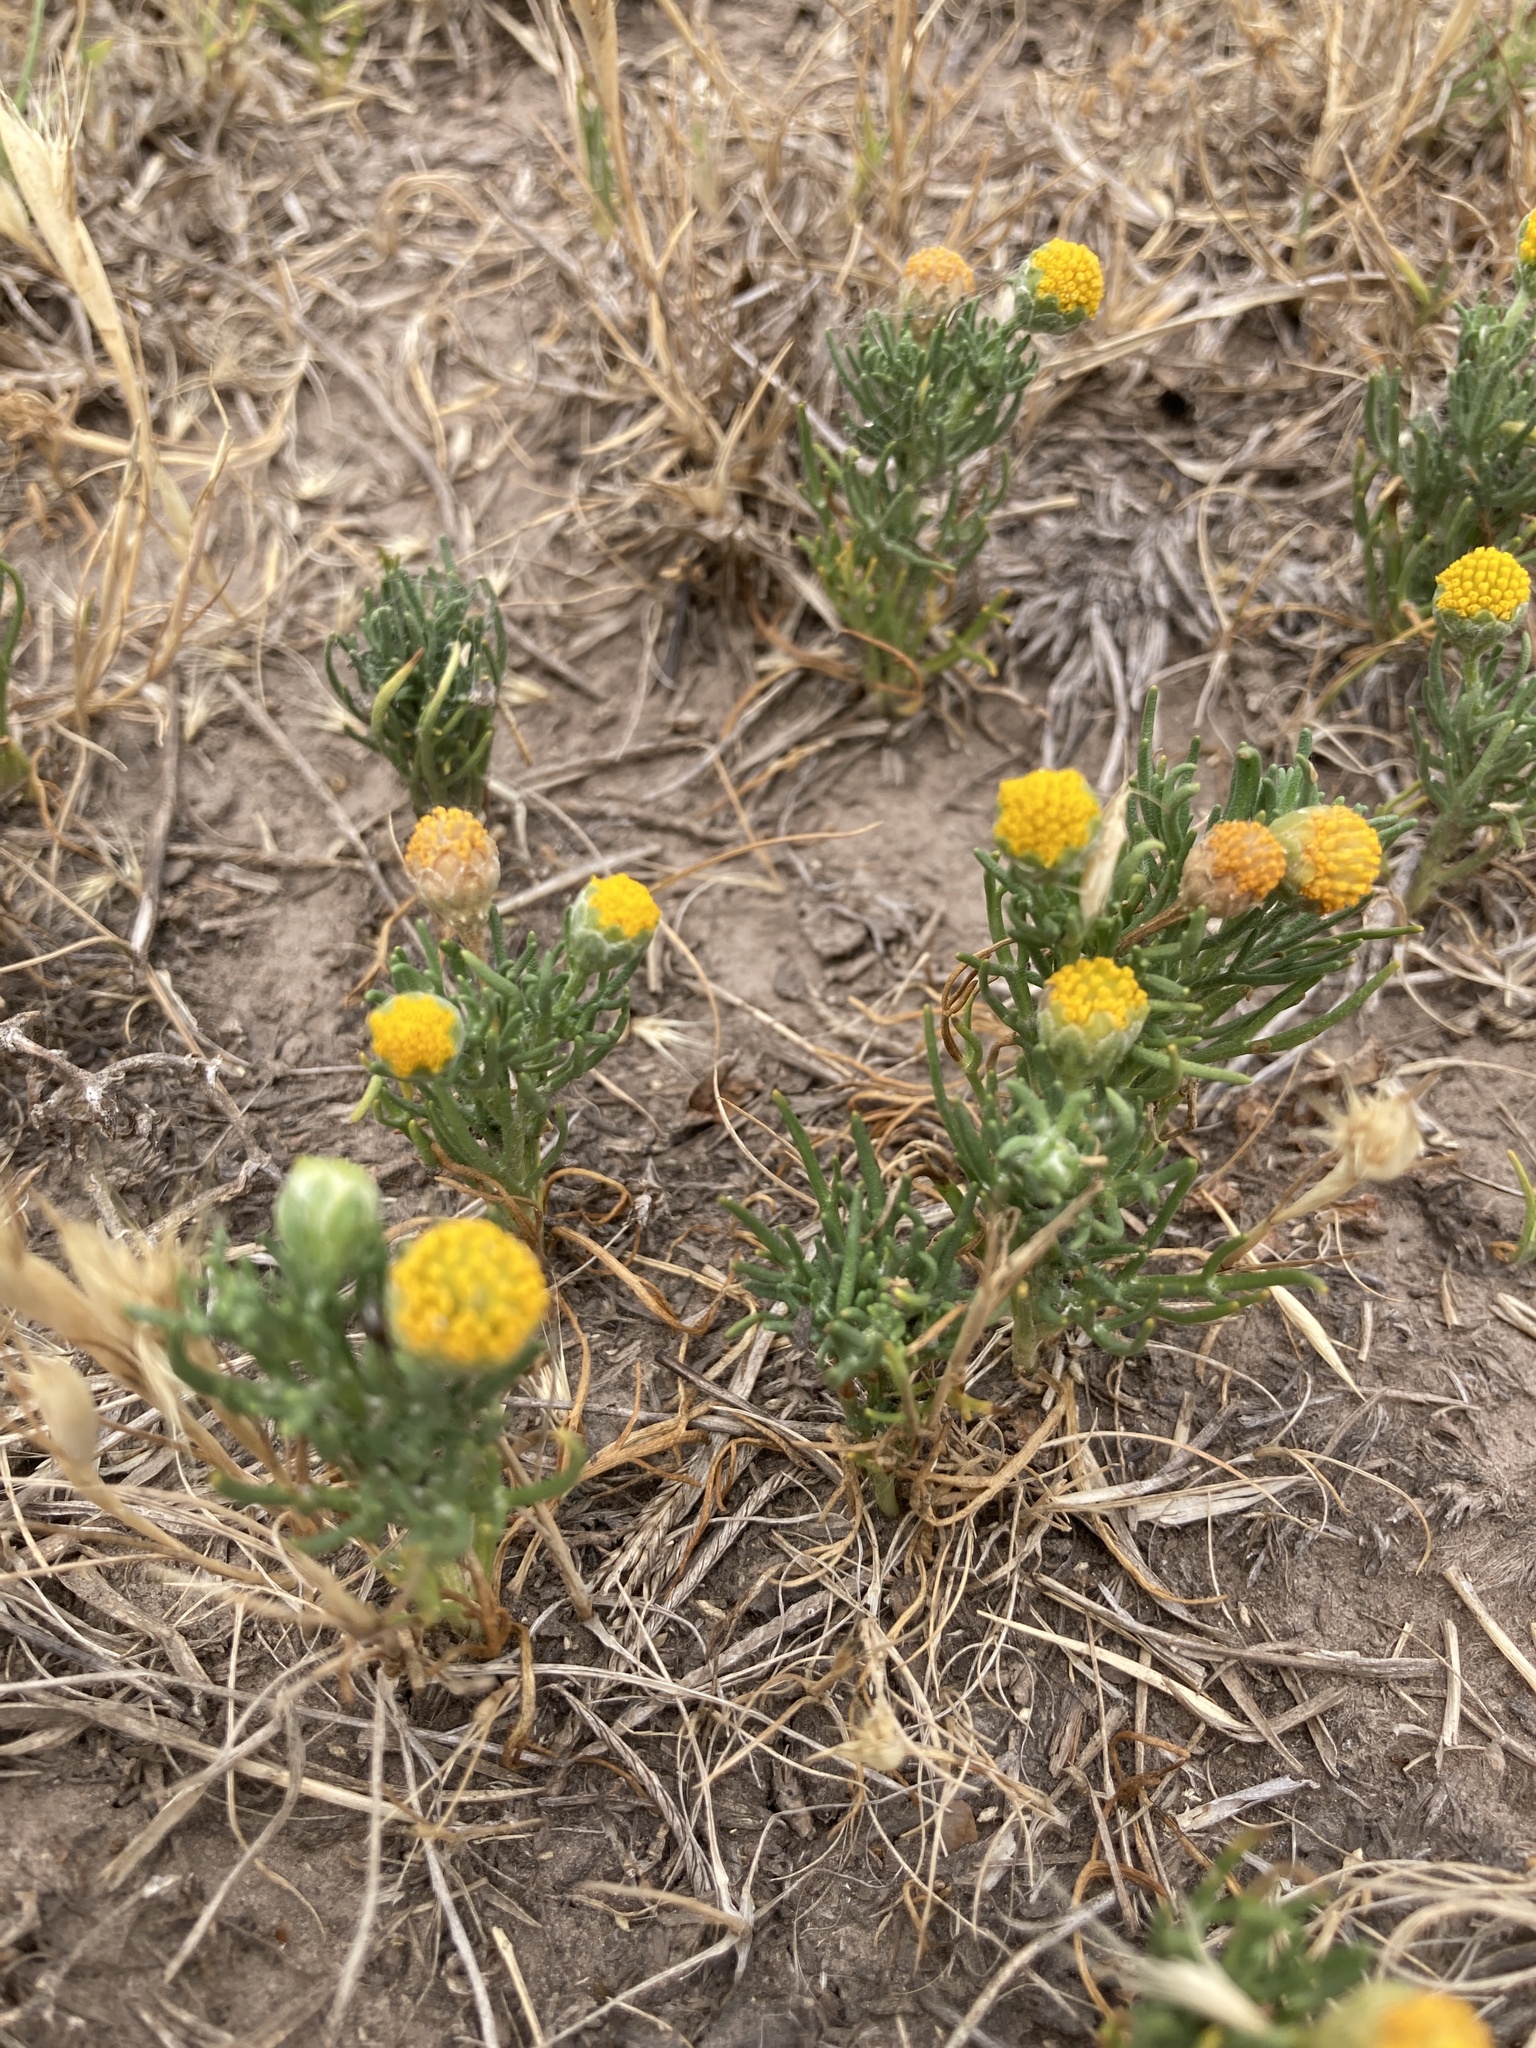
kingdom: Plantae
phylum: Tracheophyta
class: Magnoliopsida
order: Asterales
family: Asteraceae
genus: Hymenoxys
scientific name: Hymenoxys anthemoides
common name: South american rubberweed
